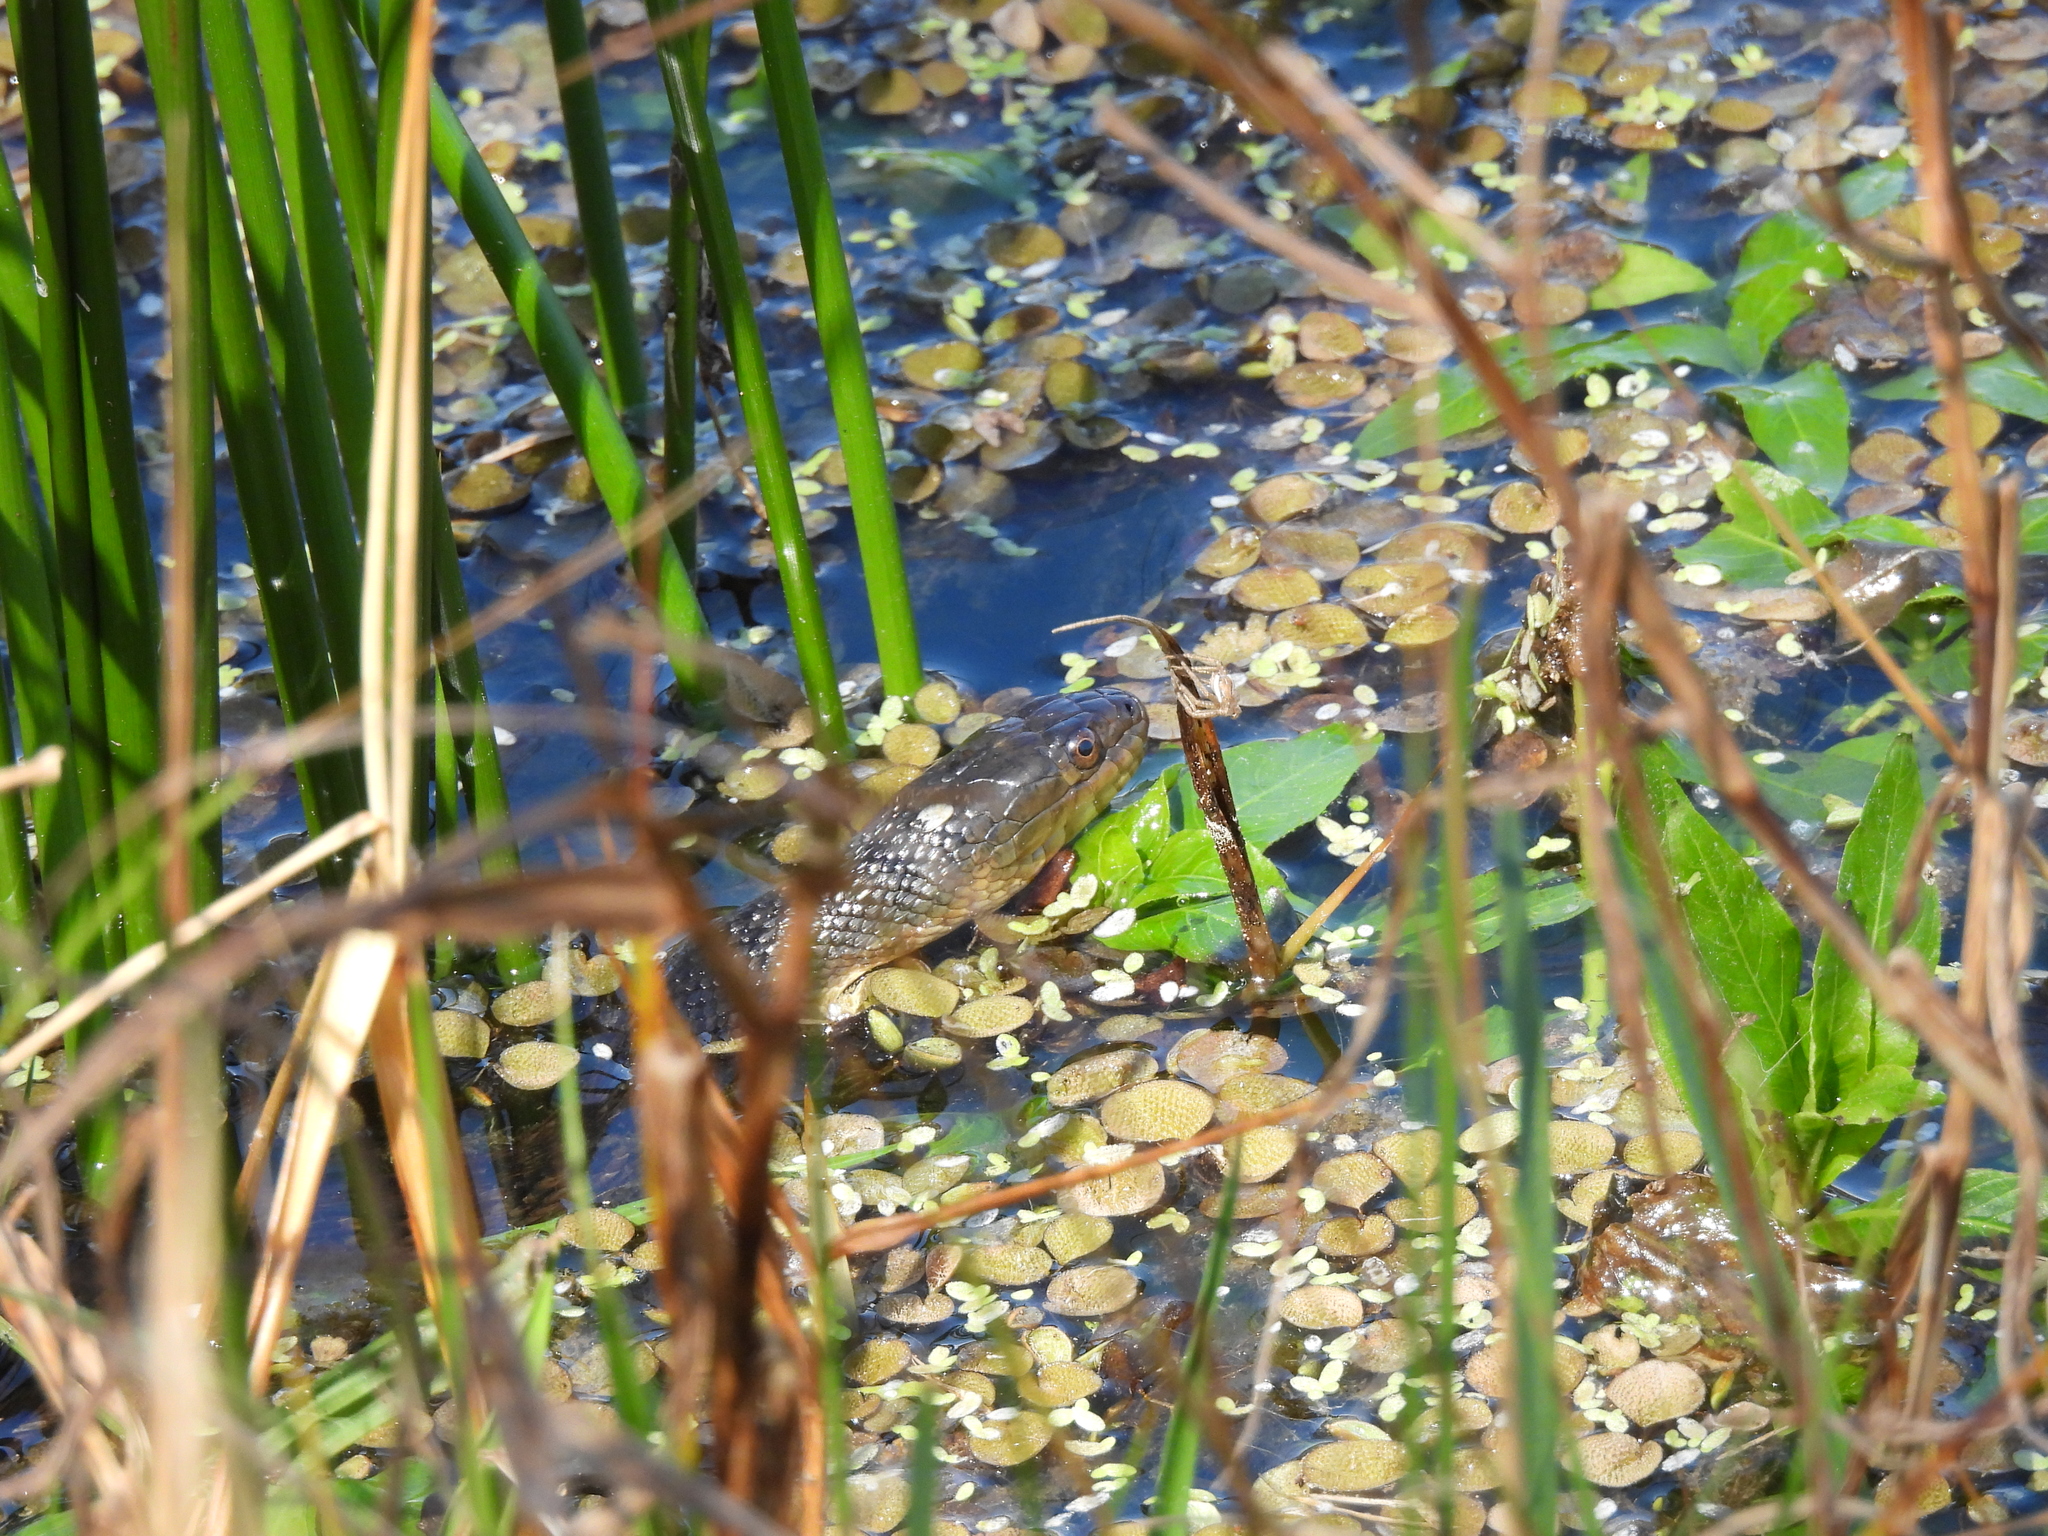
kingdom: Animalia
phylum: Chordata
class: Squamata
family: Colubridae
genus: Nerodia
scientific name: Nerodia cyclopion
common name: Mississippi green water snake
